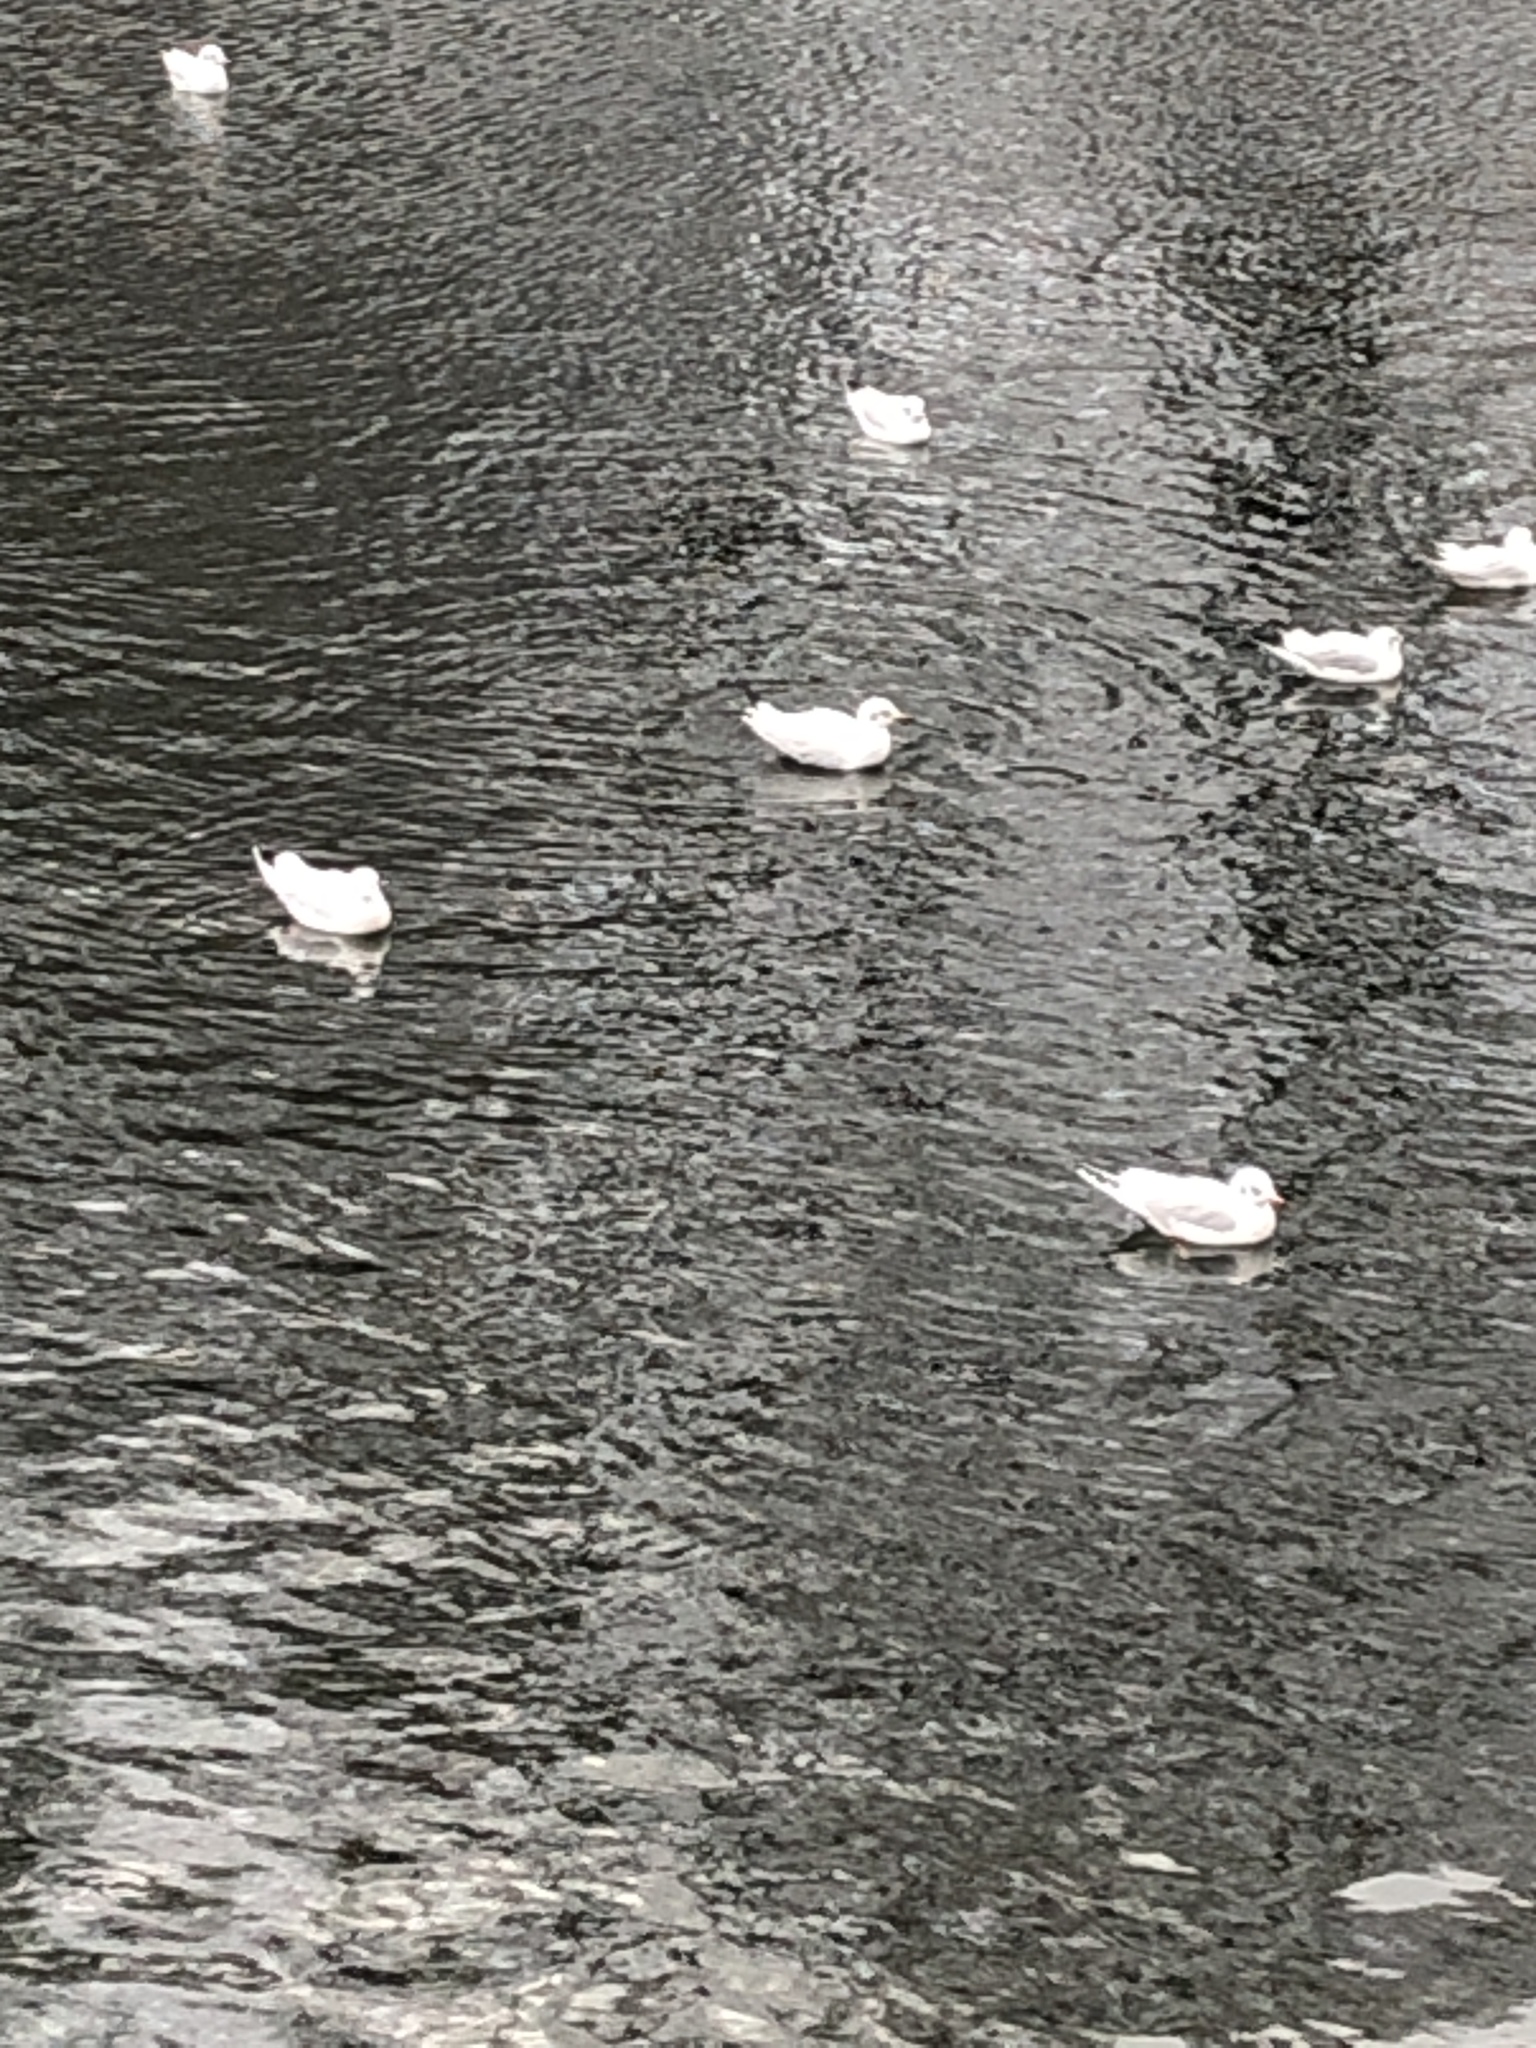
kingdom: Animalia
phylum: Chordata
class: Aves
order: Charadriiformes
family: Laridae
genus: Chroicocephalus
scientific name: Chroicocephalus ridibundus
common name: Black-headed gull
